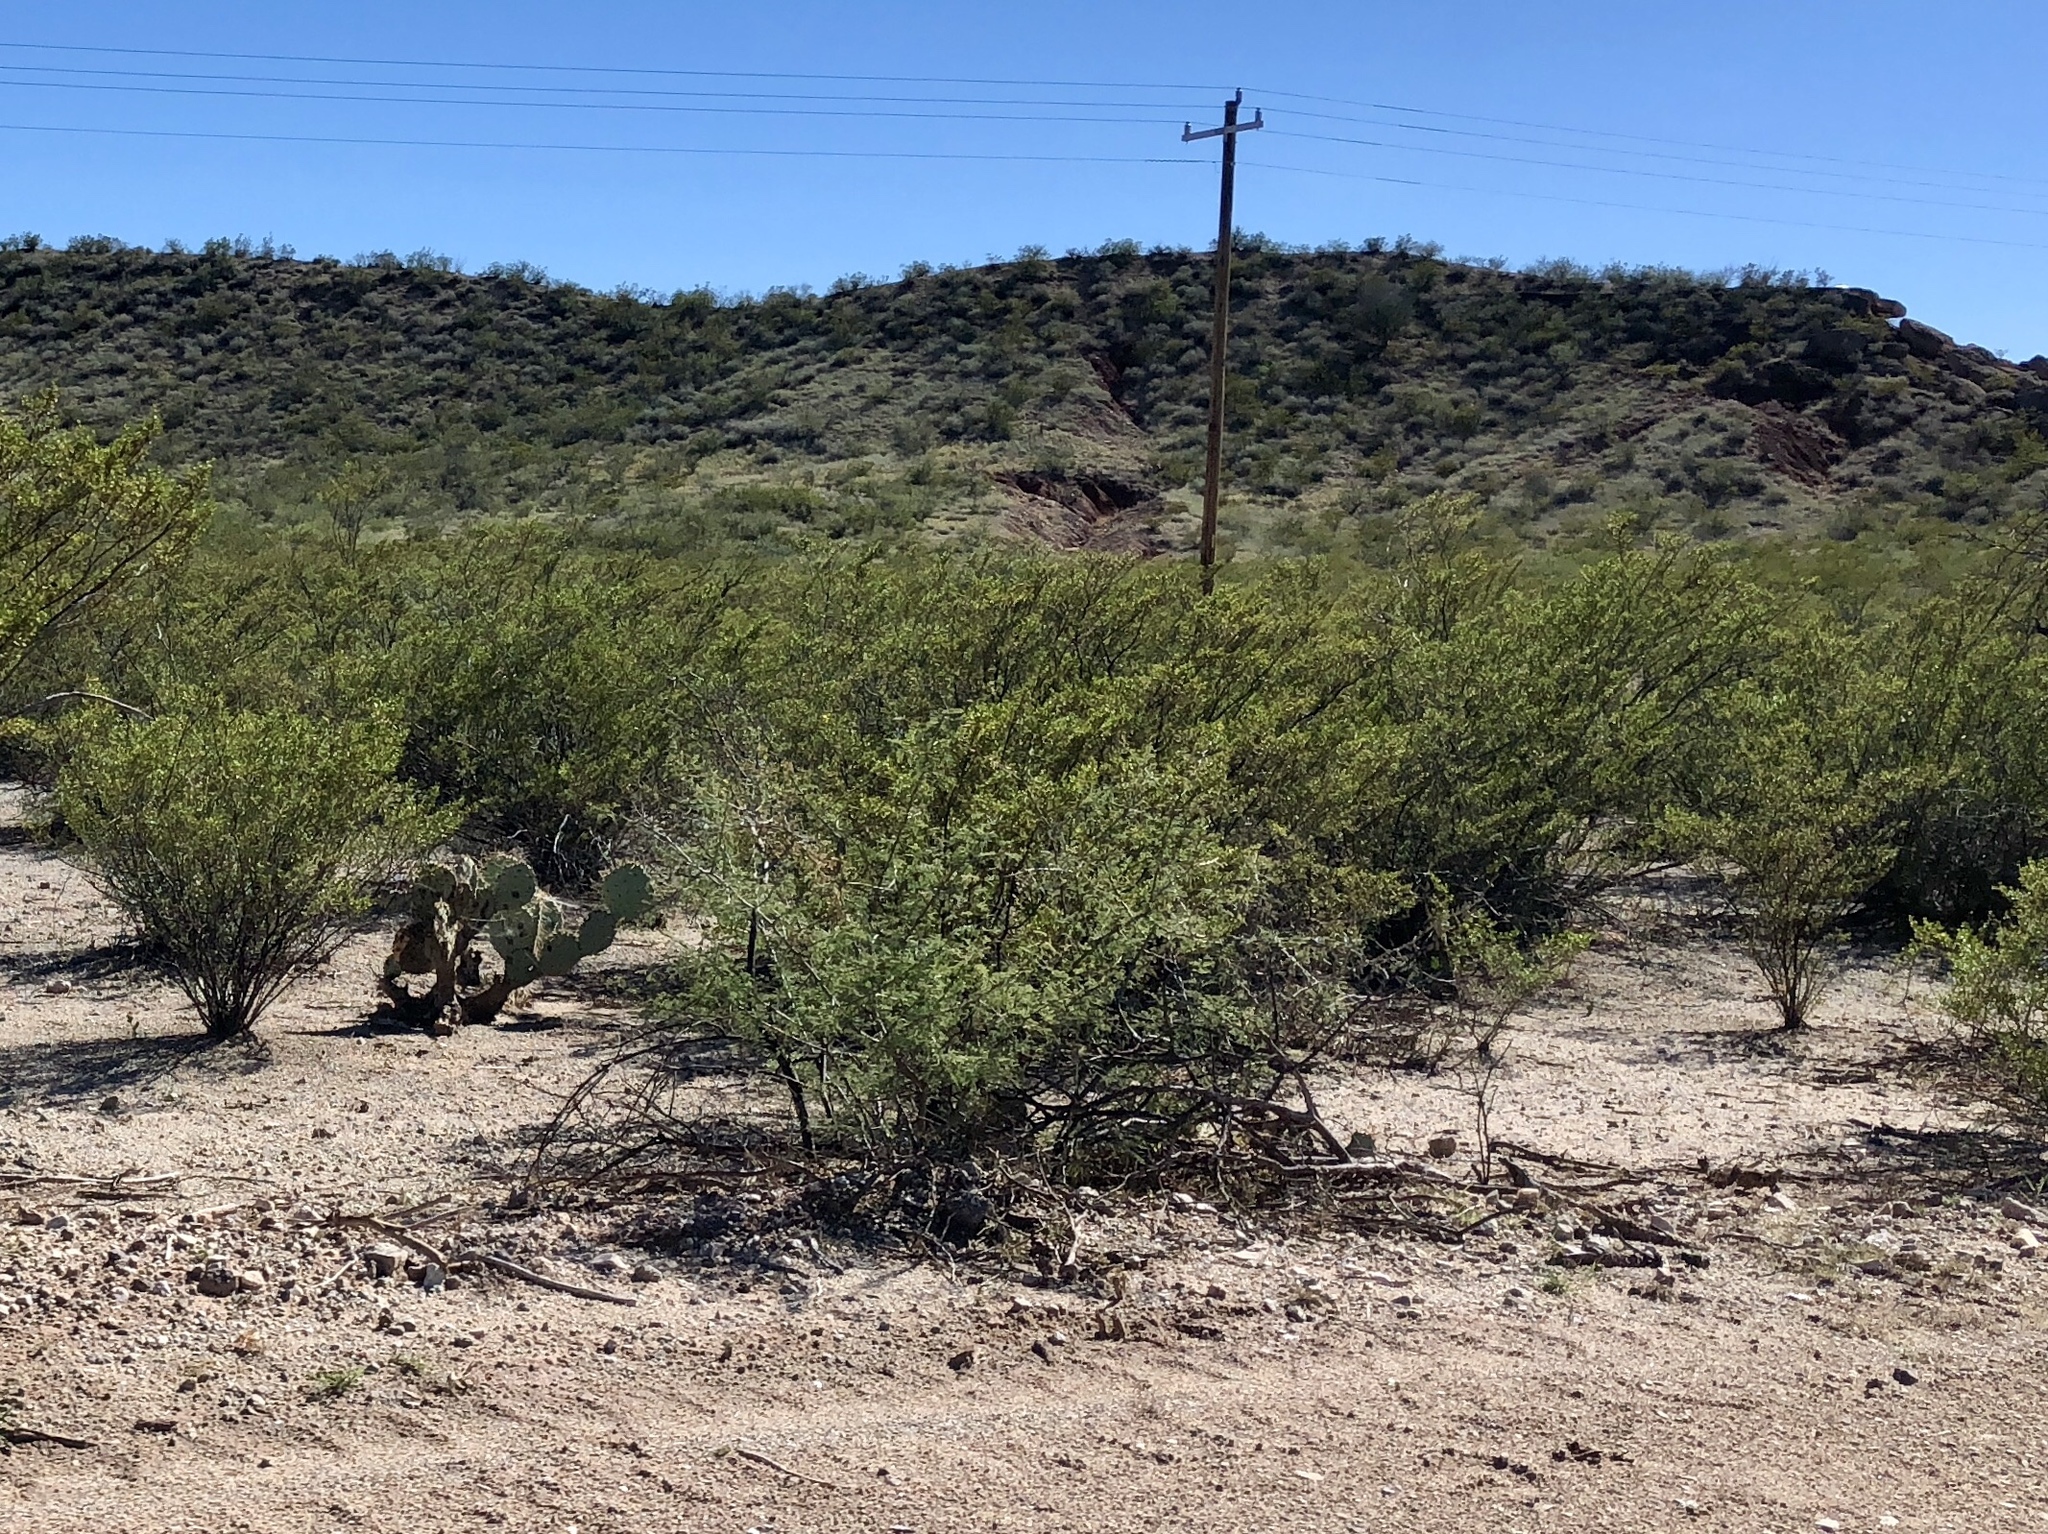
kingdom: Plantae
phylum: Tracheophyta
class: Magnoliopsida
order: Zygophyllales
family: Zygophyllaceae
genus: Larrea
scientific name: Larrea tridentata
